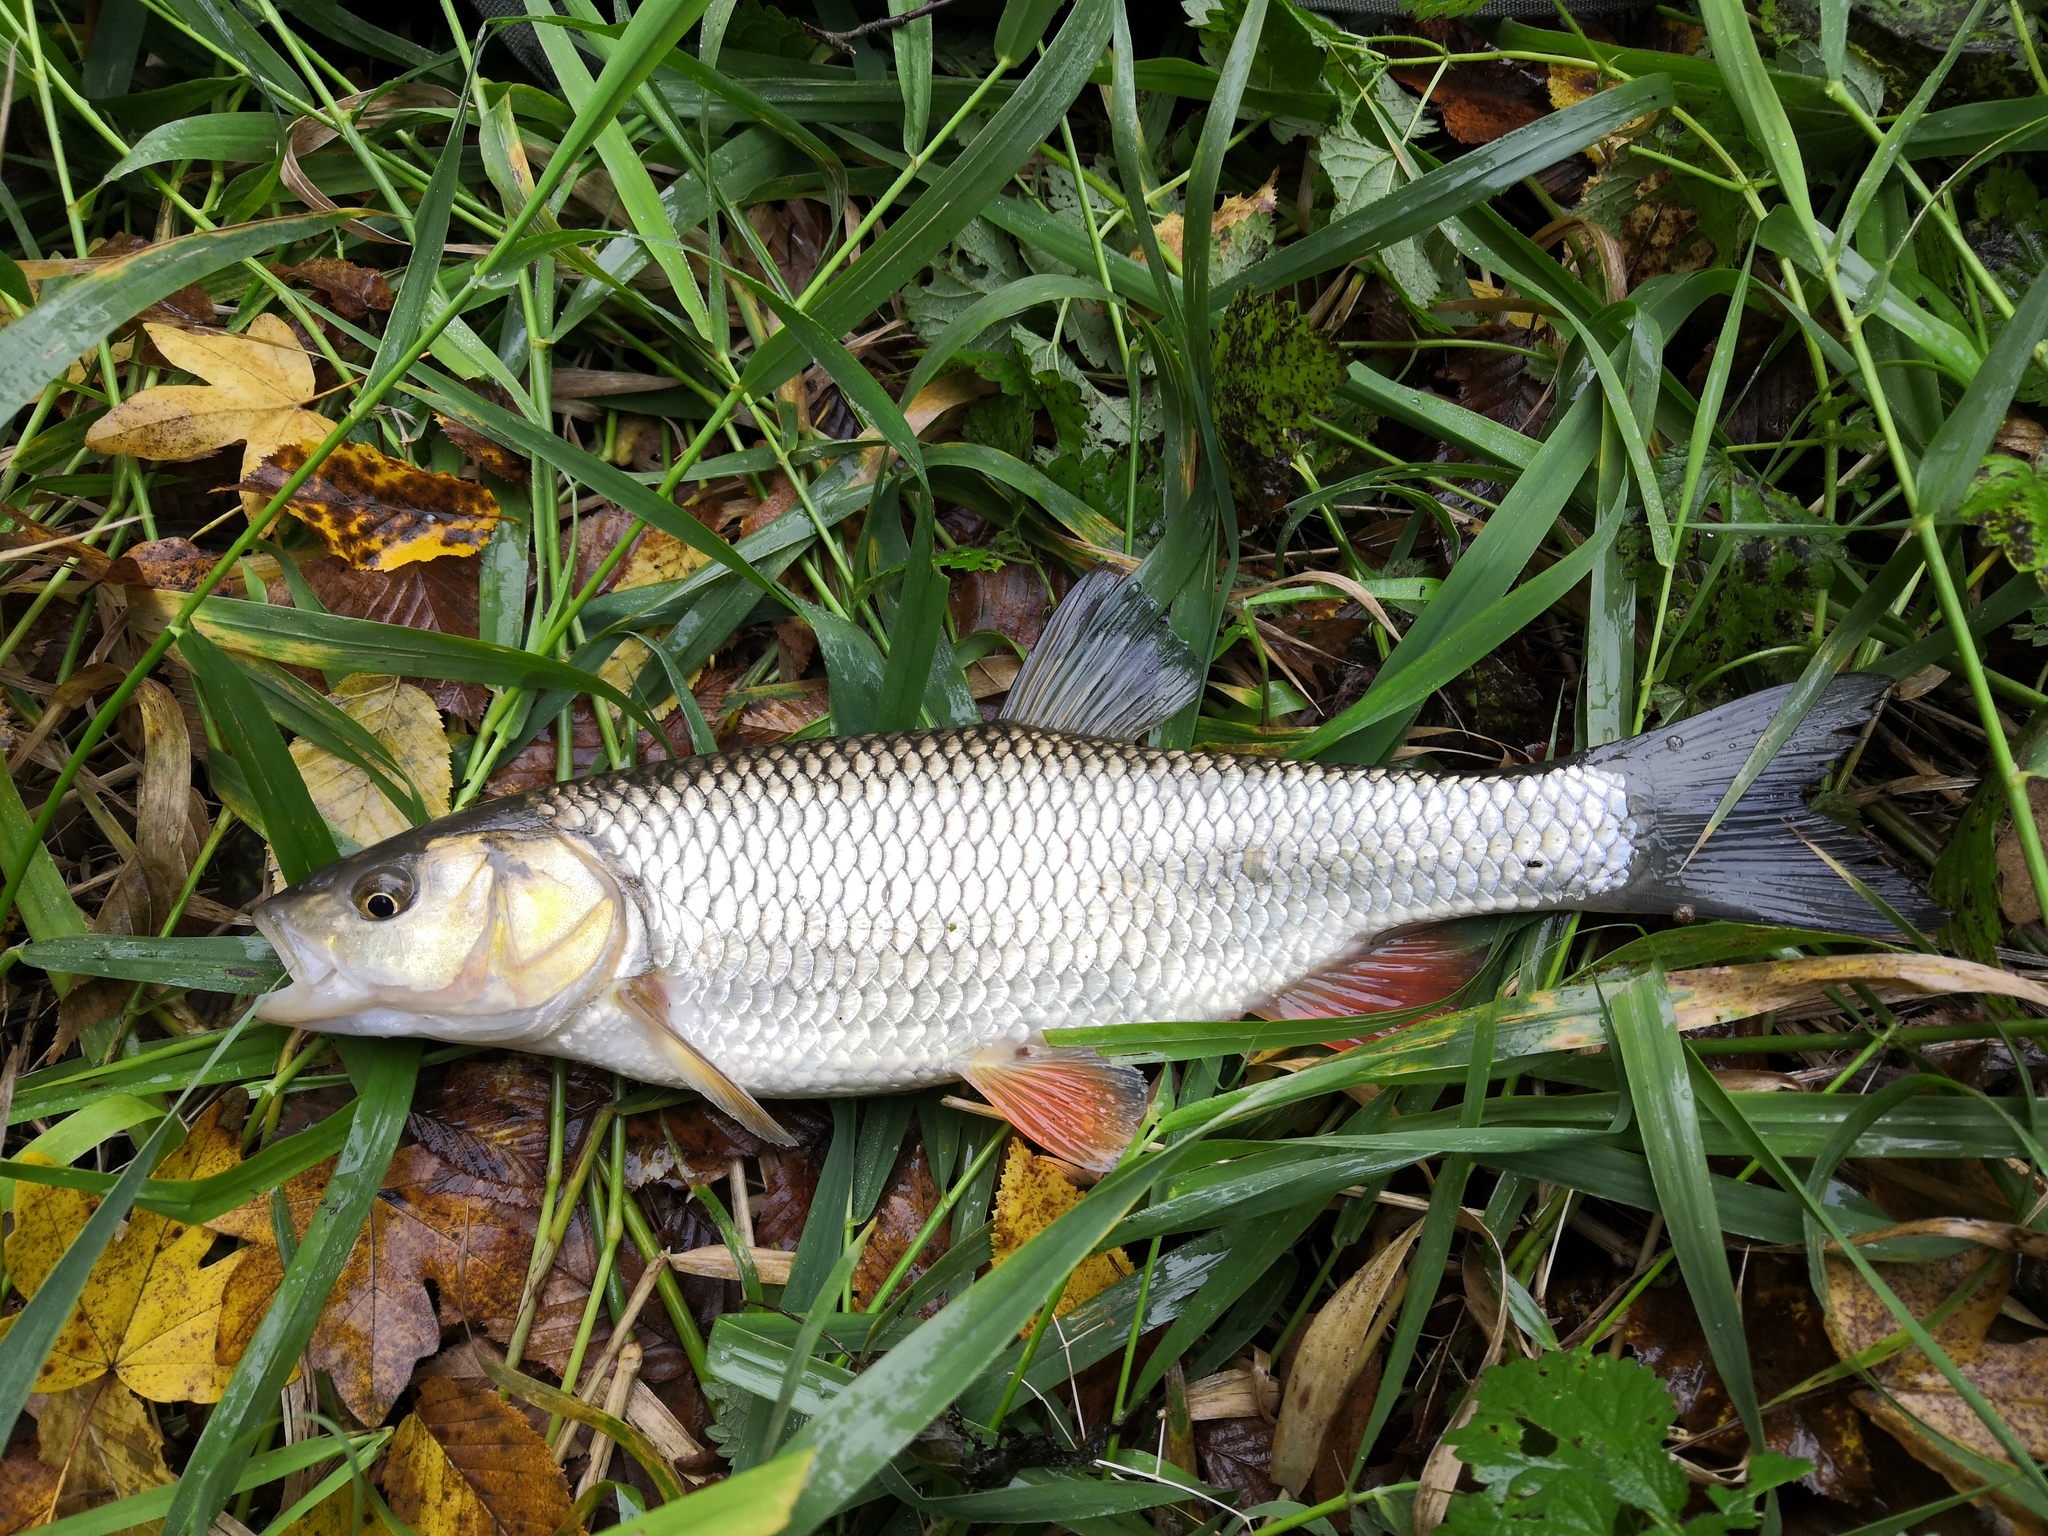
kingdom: Animalia
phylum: Chordata
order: Cypriniformes
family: Cyprinidae
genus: Squalius
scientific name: Squalius cephalus
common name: Chub
